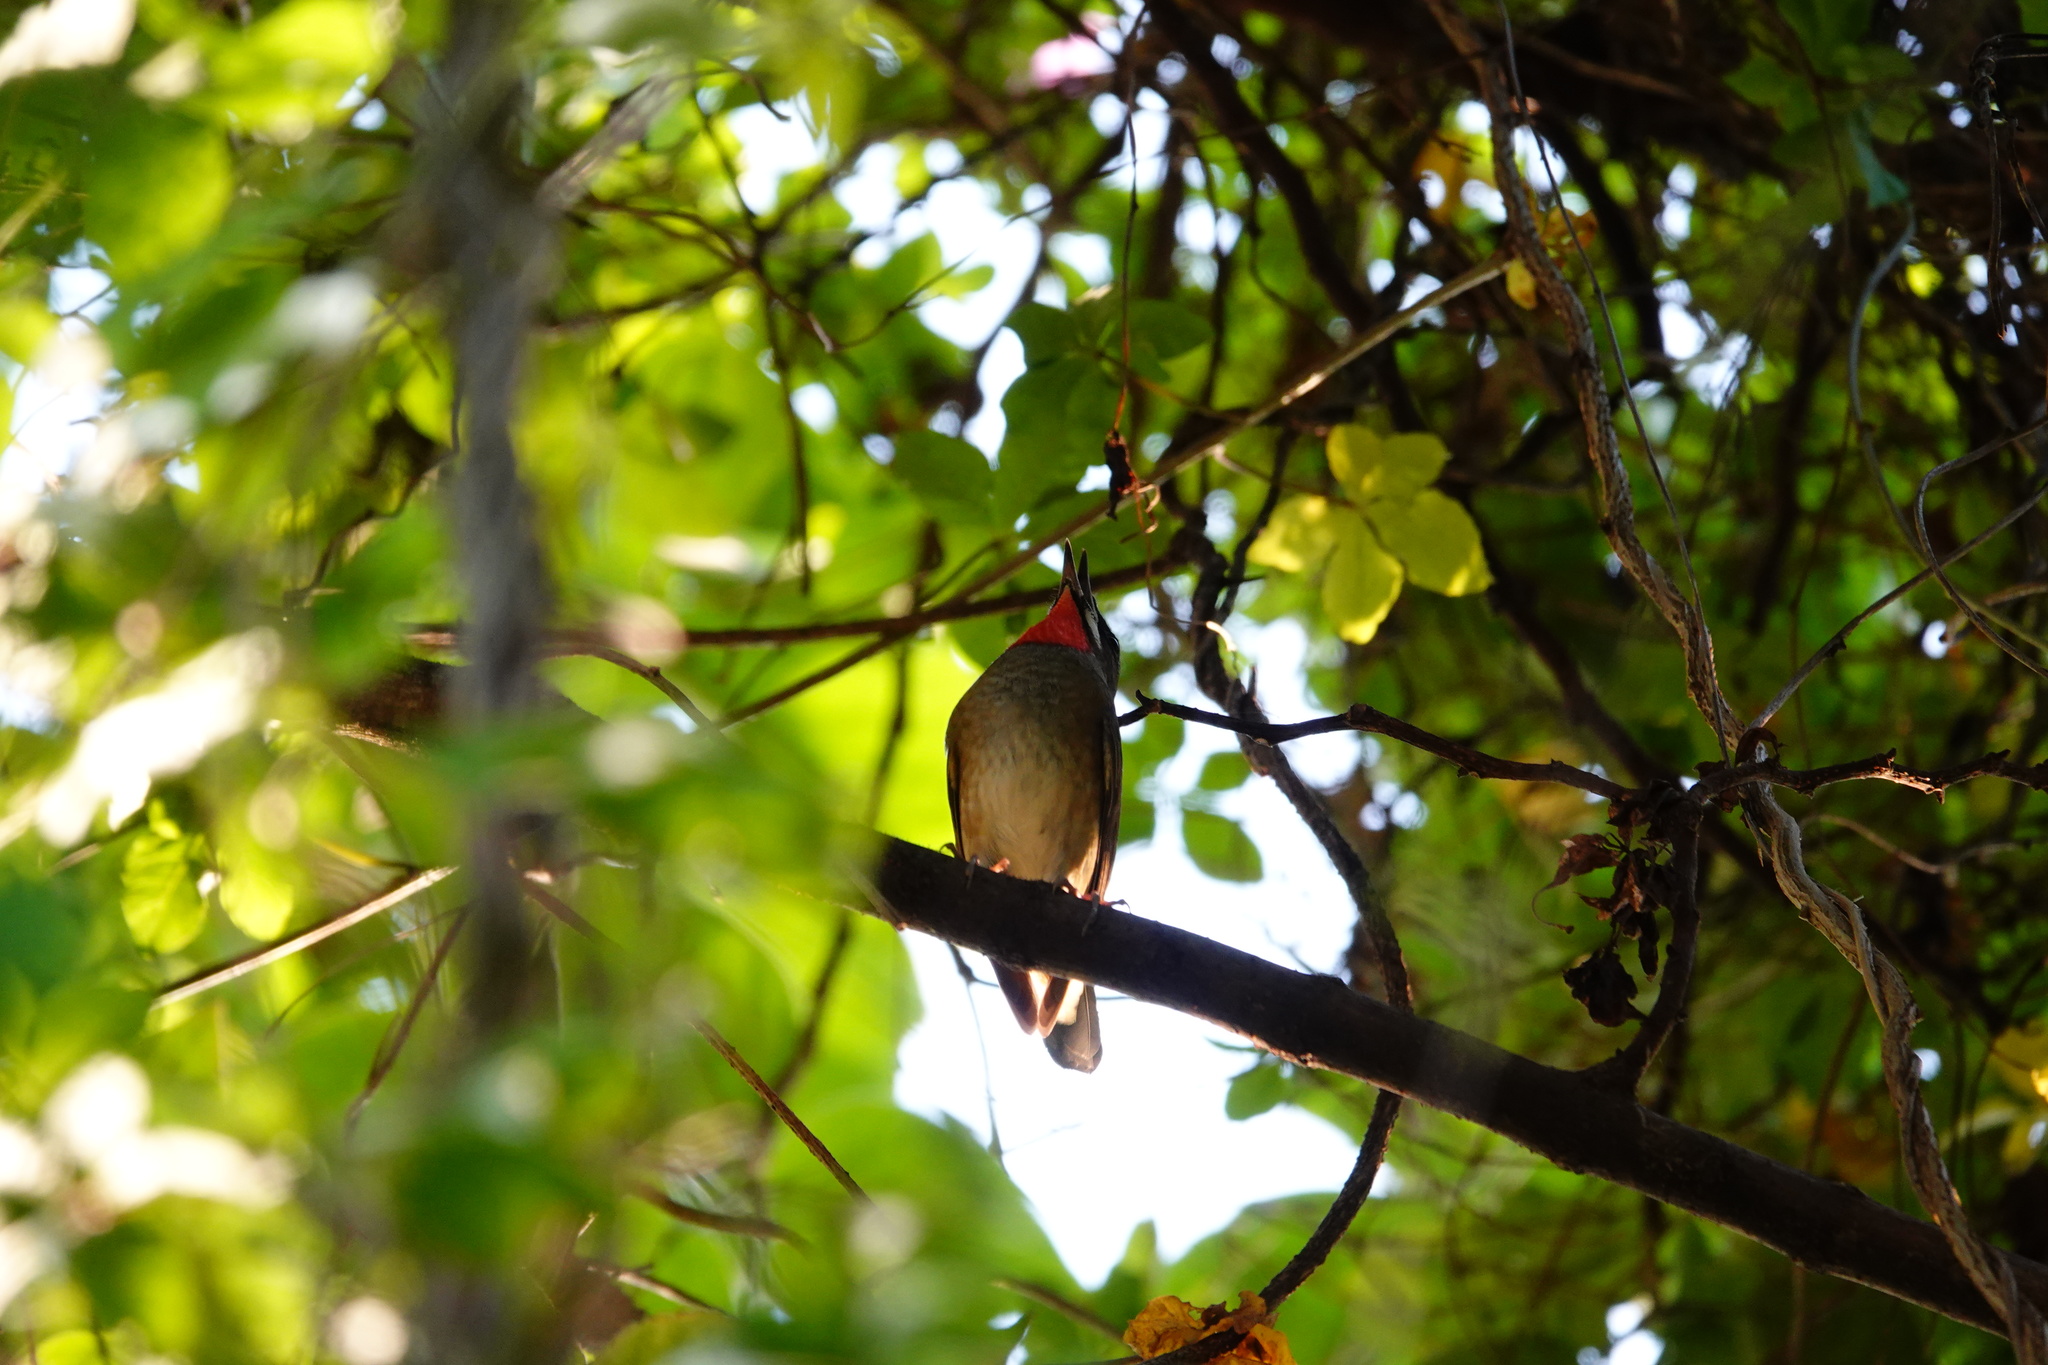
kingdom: Animalia
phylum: Chordata
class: Aves
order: Passeriformes
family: Muscicapidae
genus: Luscinia
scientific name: Luscinia calliope
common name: Siberian rubythroat
